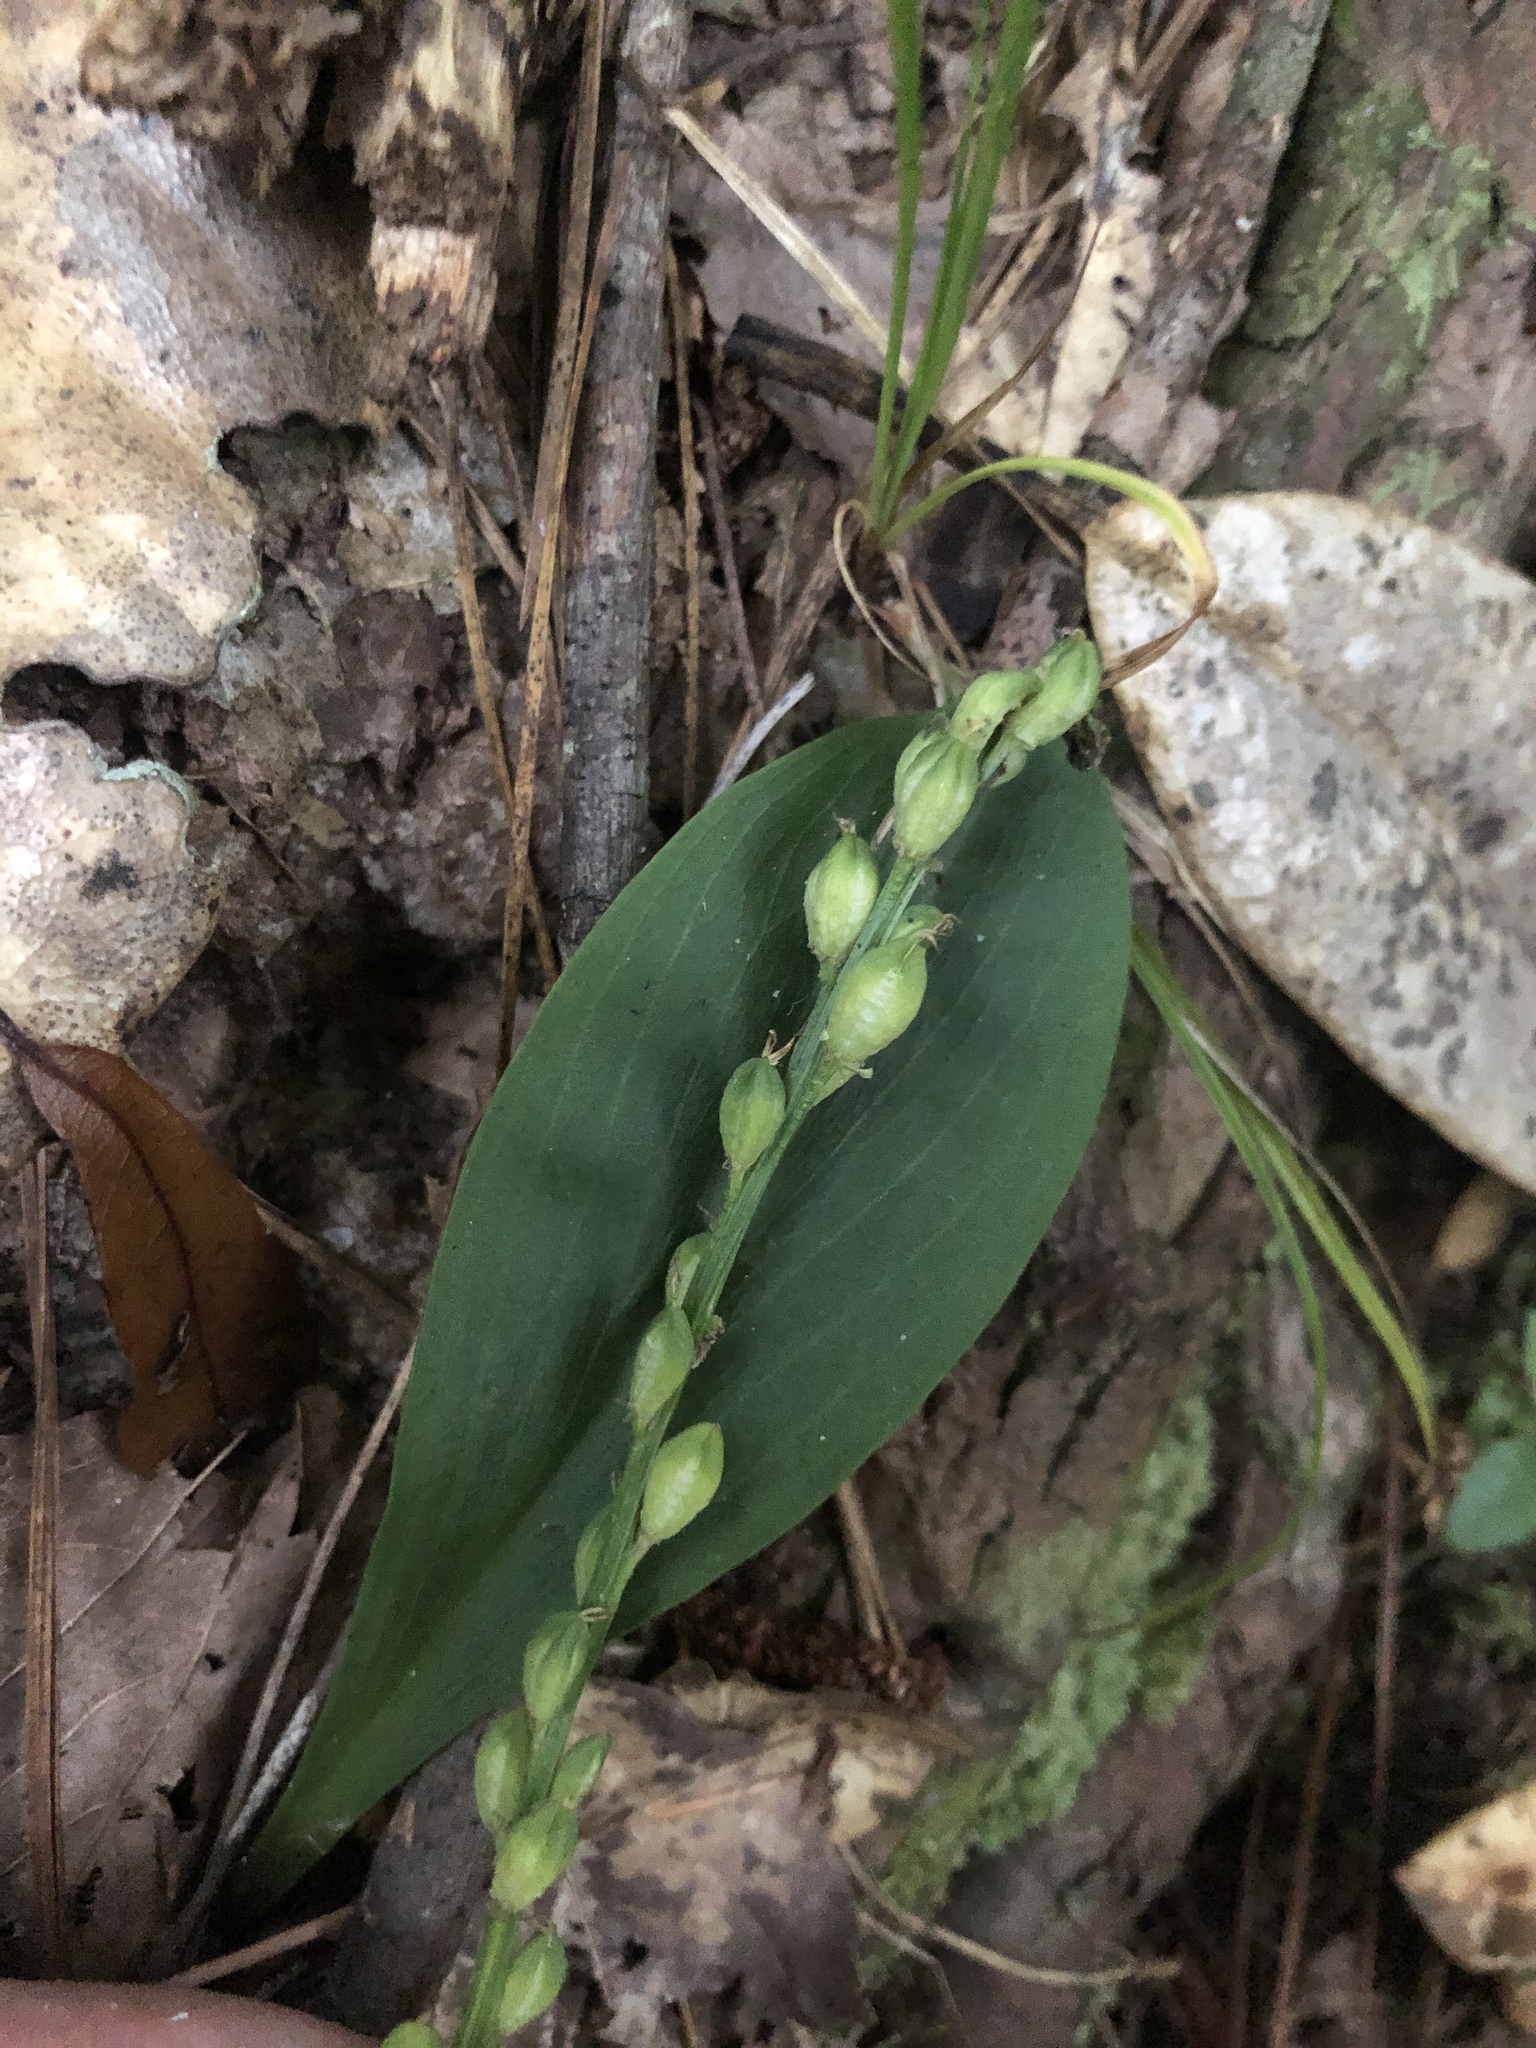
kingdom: Plantae
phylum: Tracheophyta
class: Liliopsida
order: Liliales
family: Melanthiaceae
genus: Chamaelirium
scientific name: Chamaelirium luteum
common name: Fairy-wand
